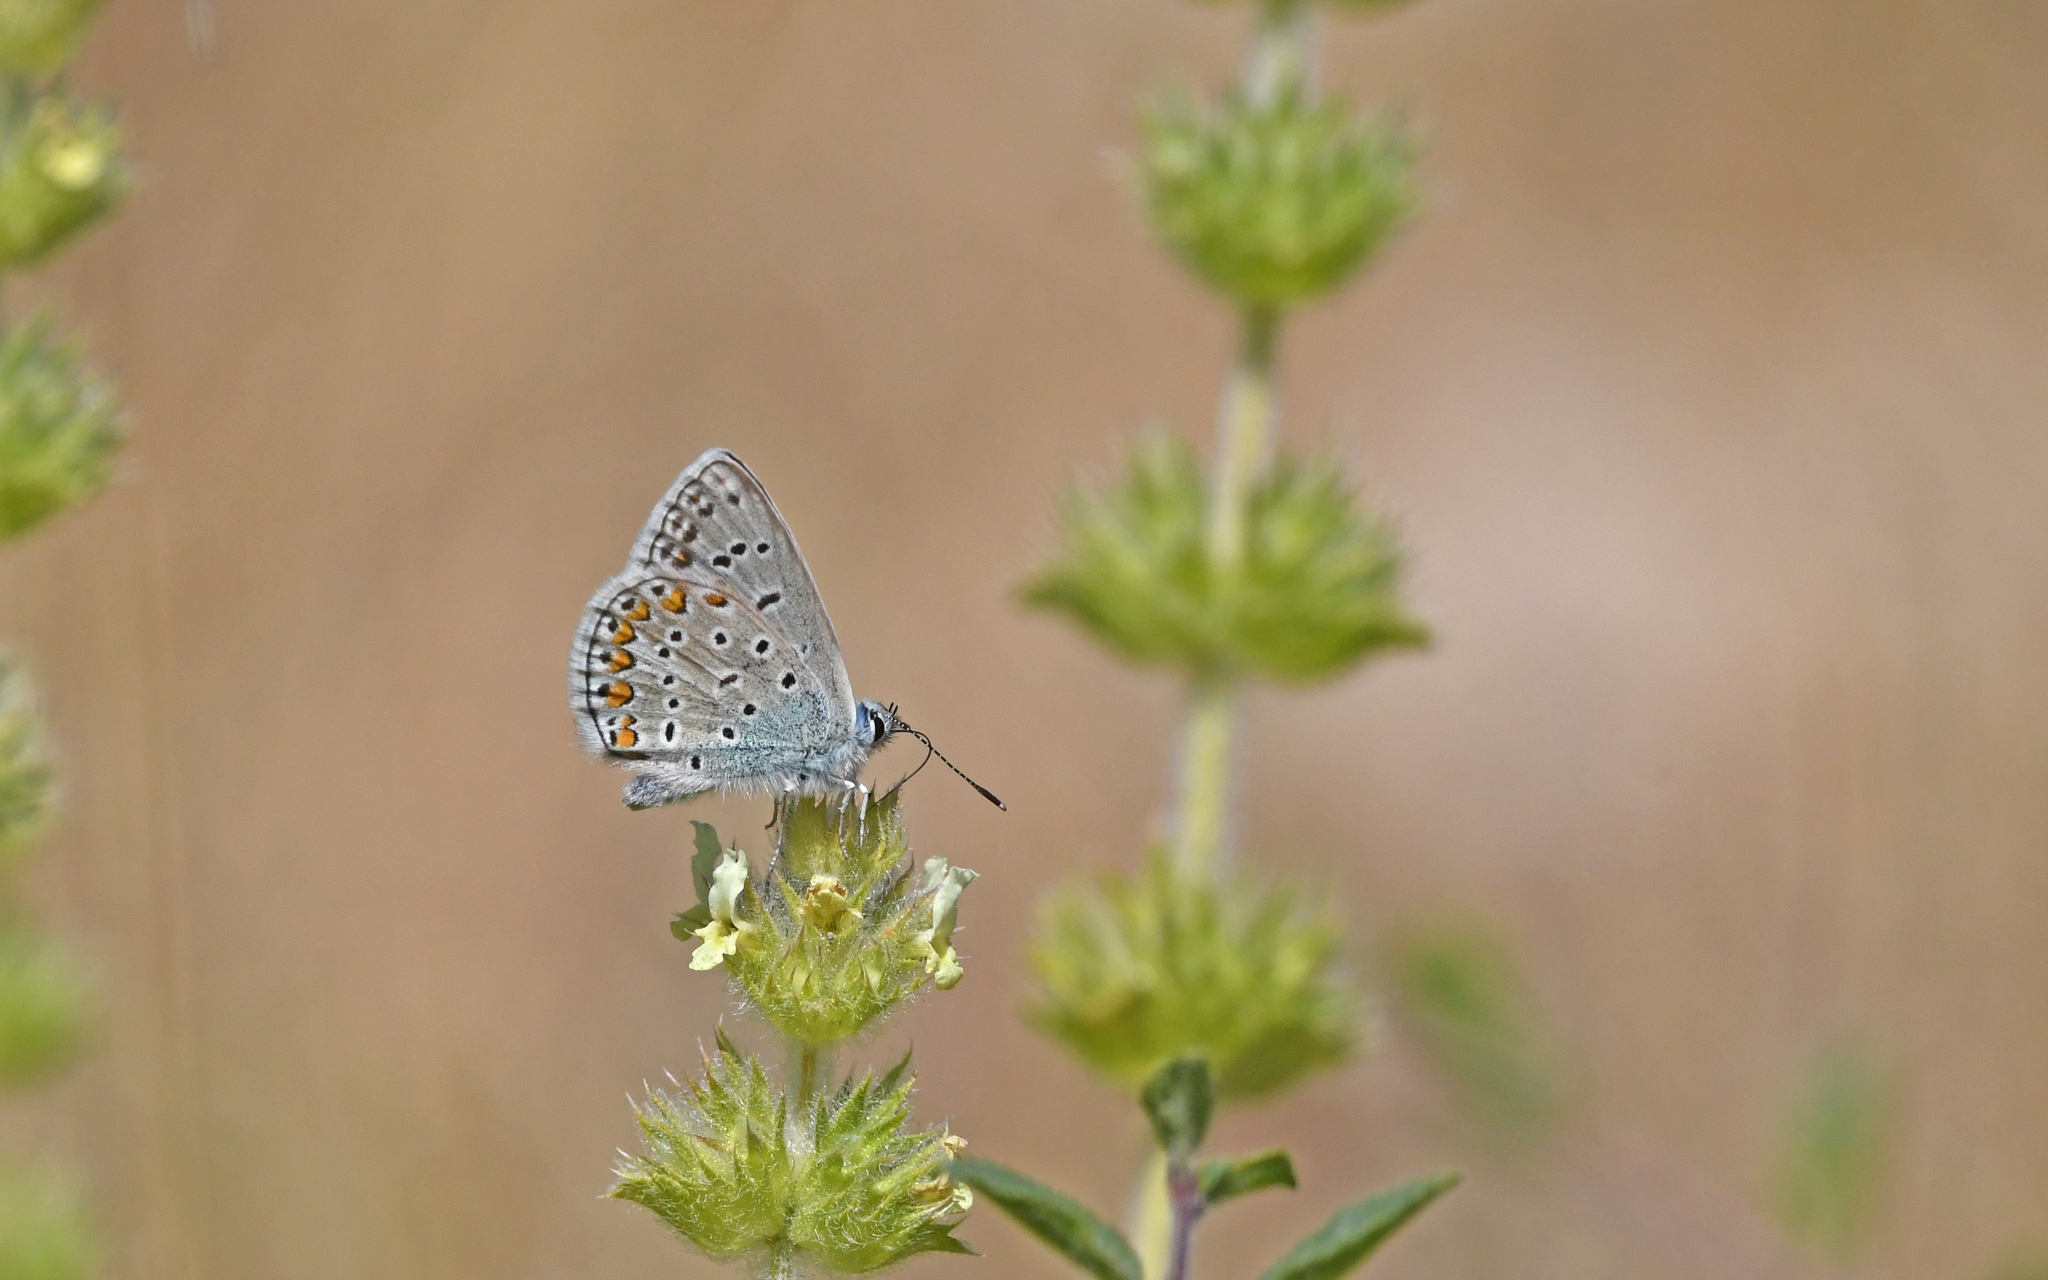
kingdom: Animalia
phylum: Arthropoda
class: Insecta
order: Lepidoptera
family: Lycaenidae
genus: Polyommatus
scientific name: Polyommatus icarus
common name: Common blue
